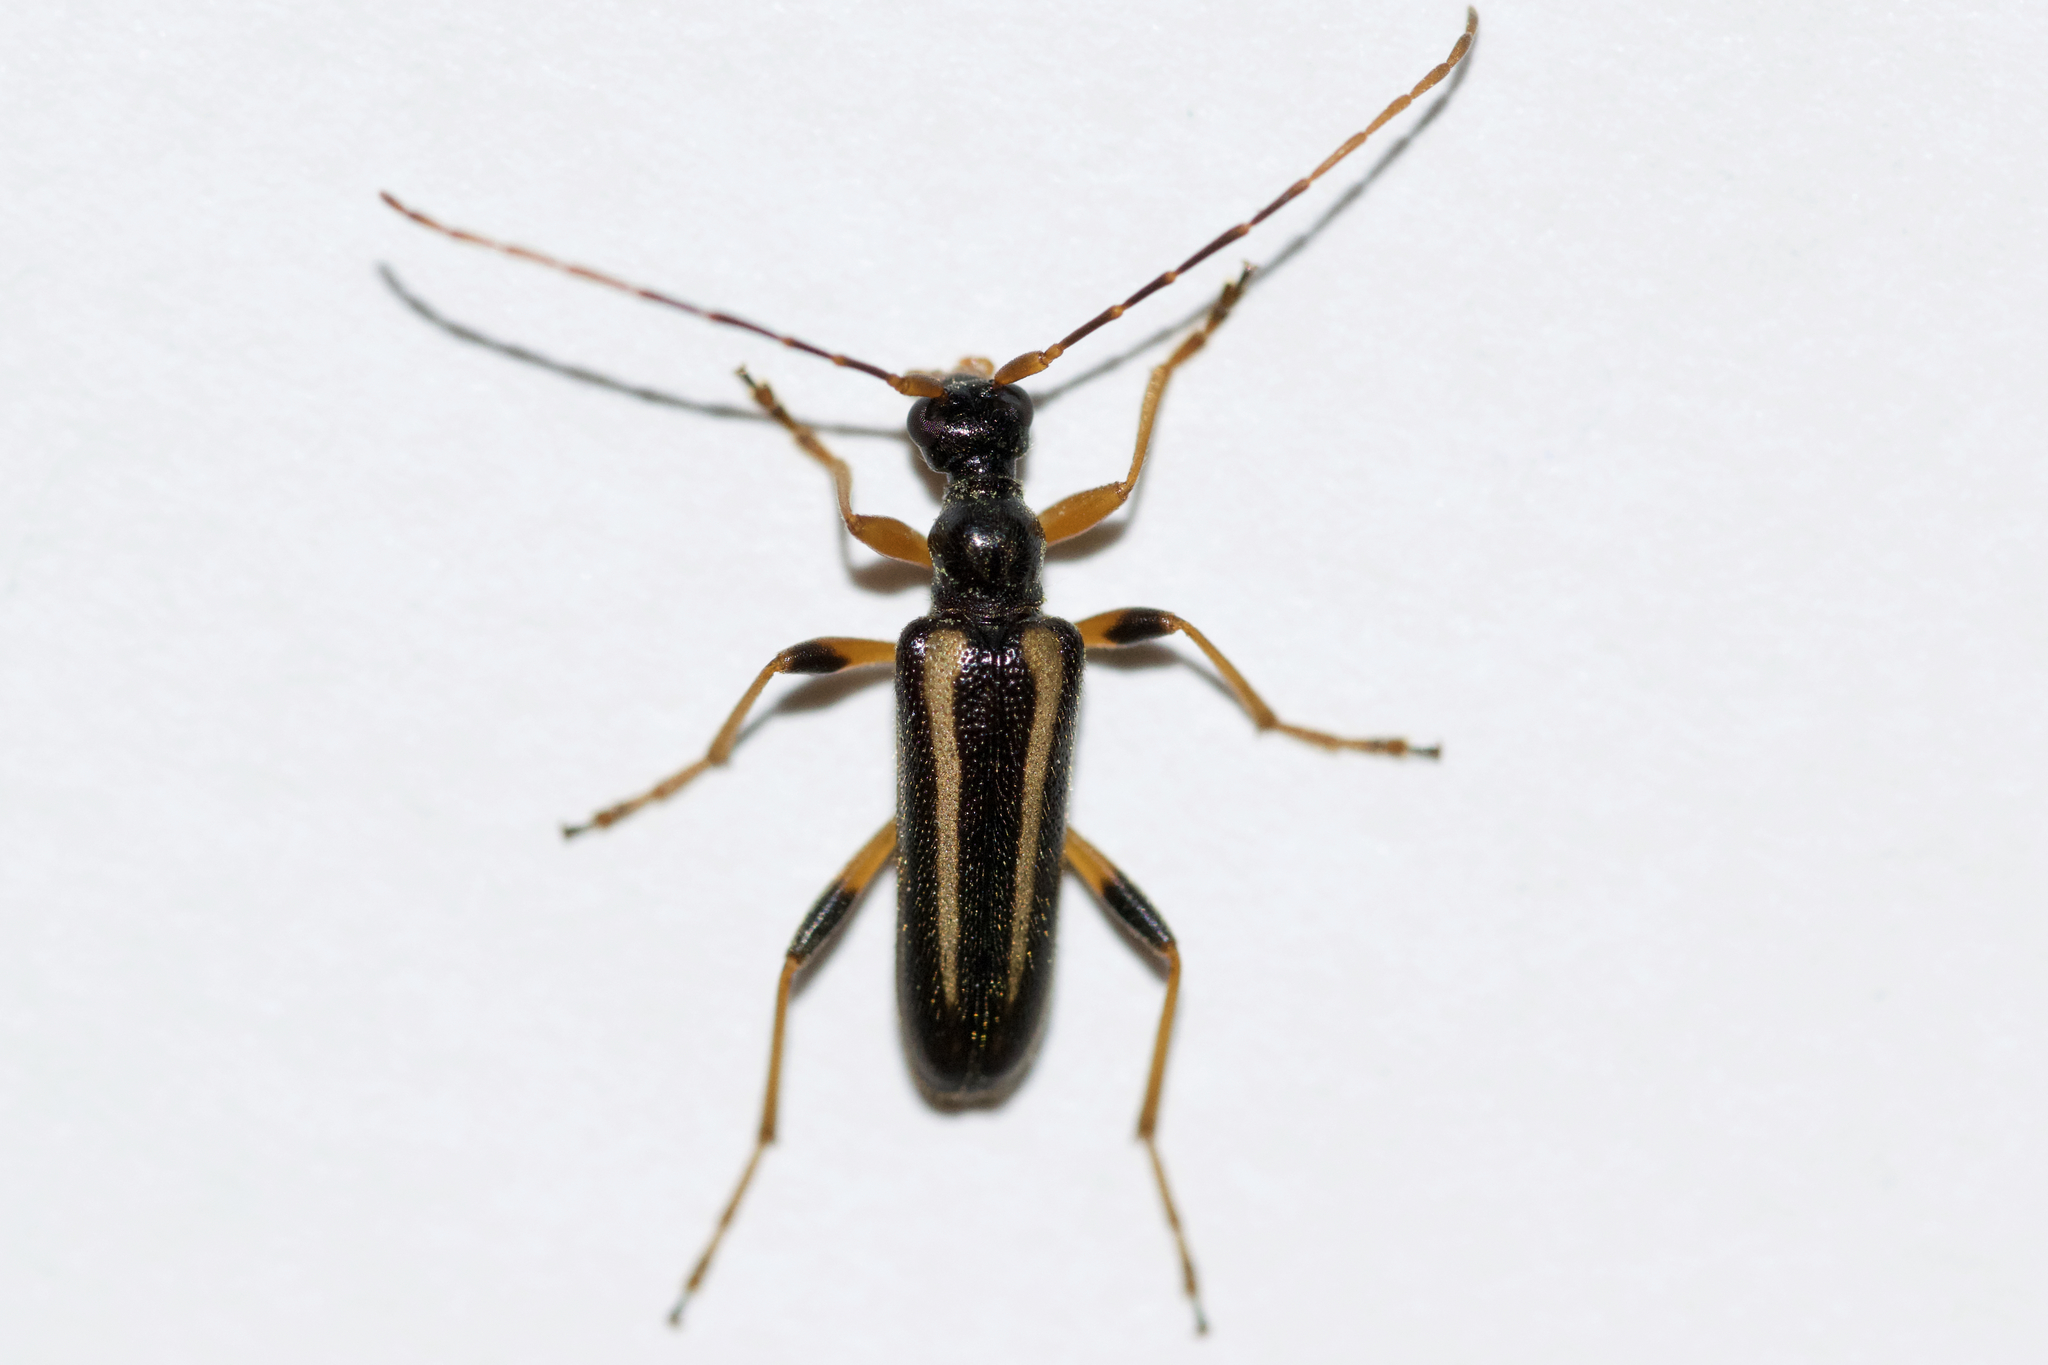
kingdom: Animalia
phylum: Arthropoda
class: Insecta
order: Coleoptera
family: Cerambycidae
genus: Pidonia
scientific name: Pidonia ruficollis
